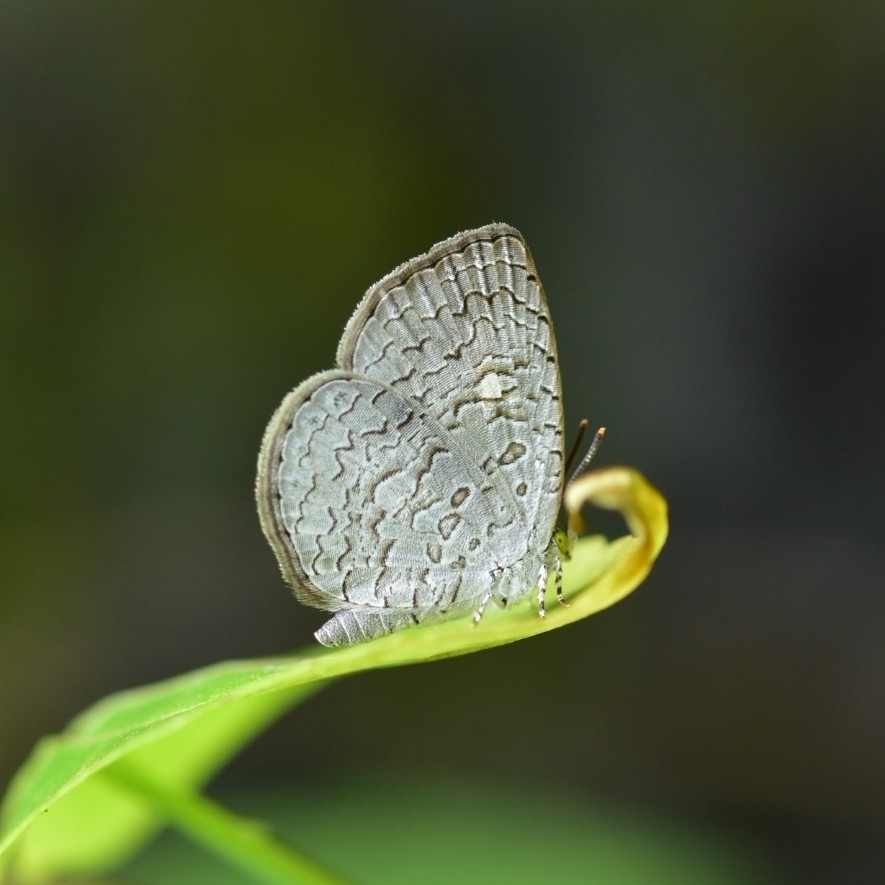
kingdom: Animalia
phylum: Arthropoda
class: Insecta
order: Lepidoptera
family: Lycaenidae
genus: Spalgis
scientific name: Spalgis epius
